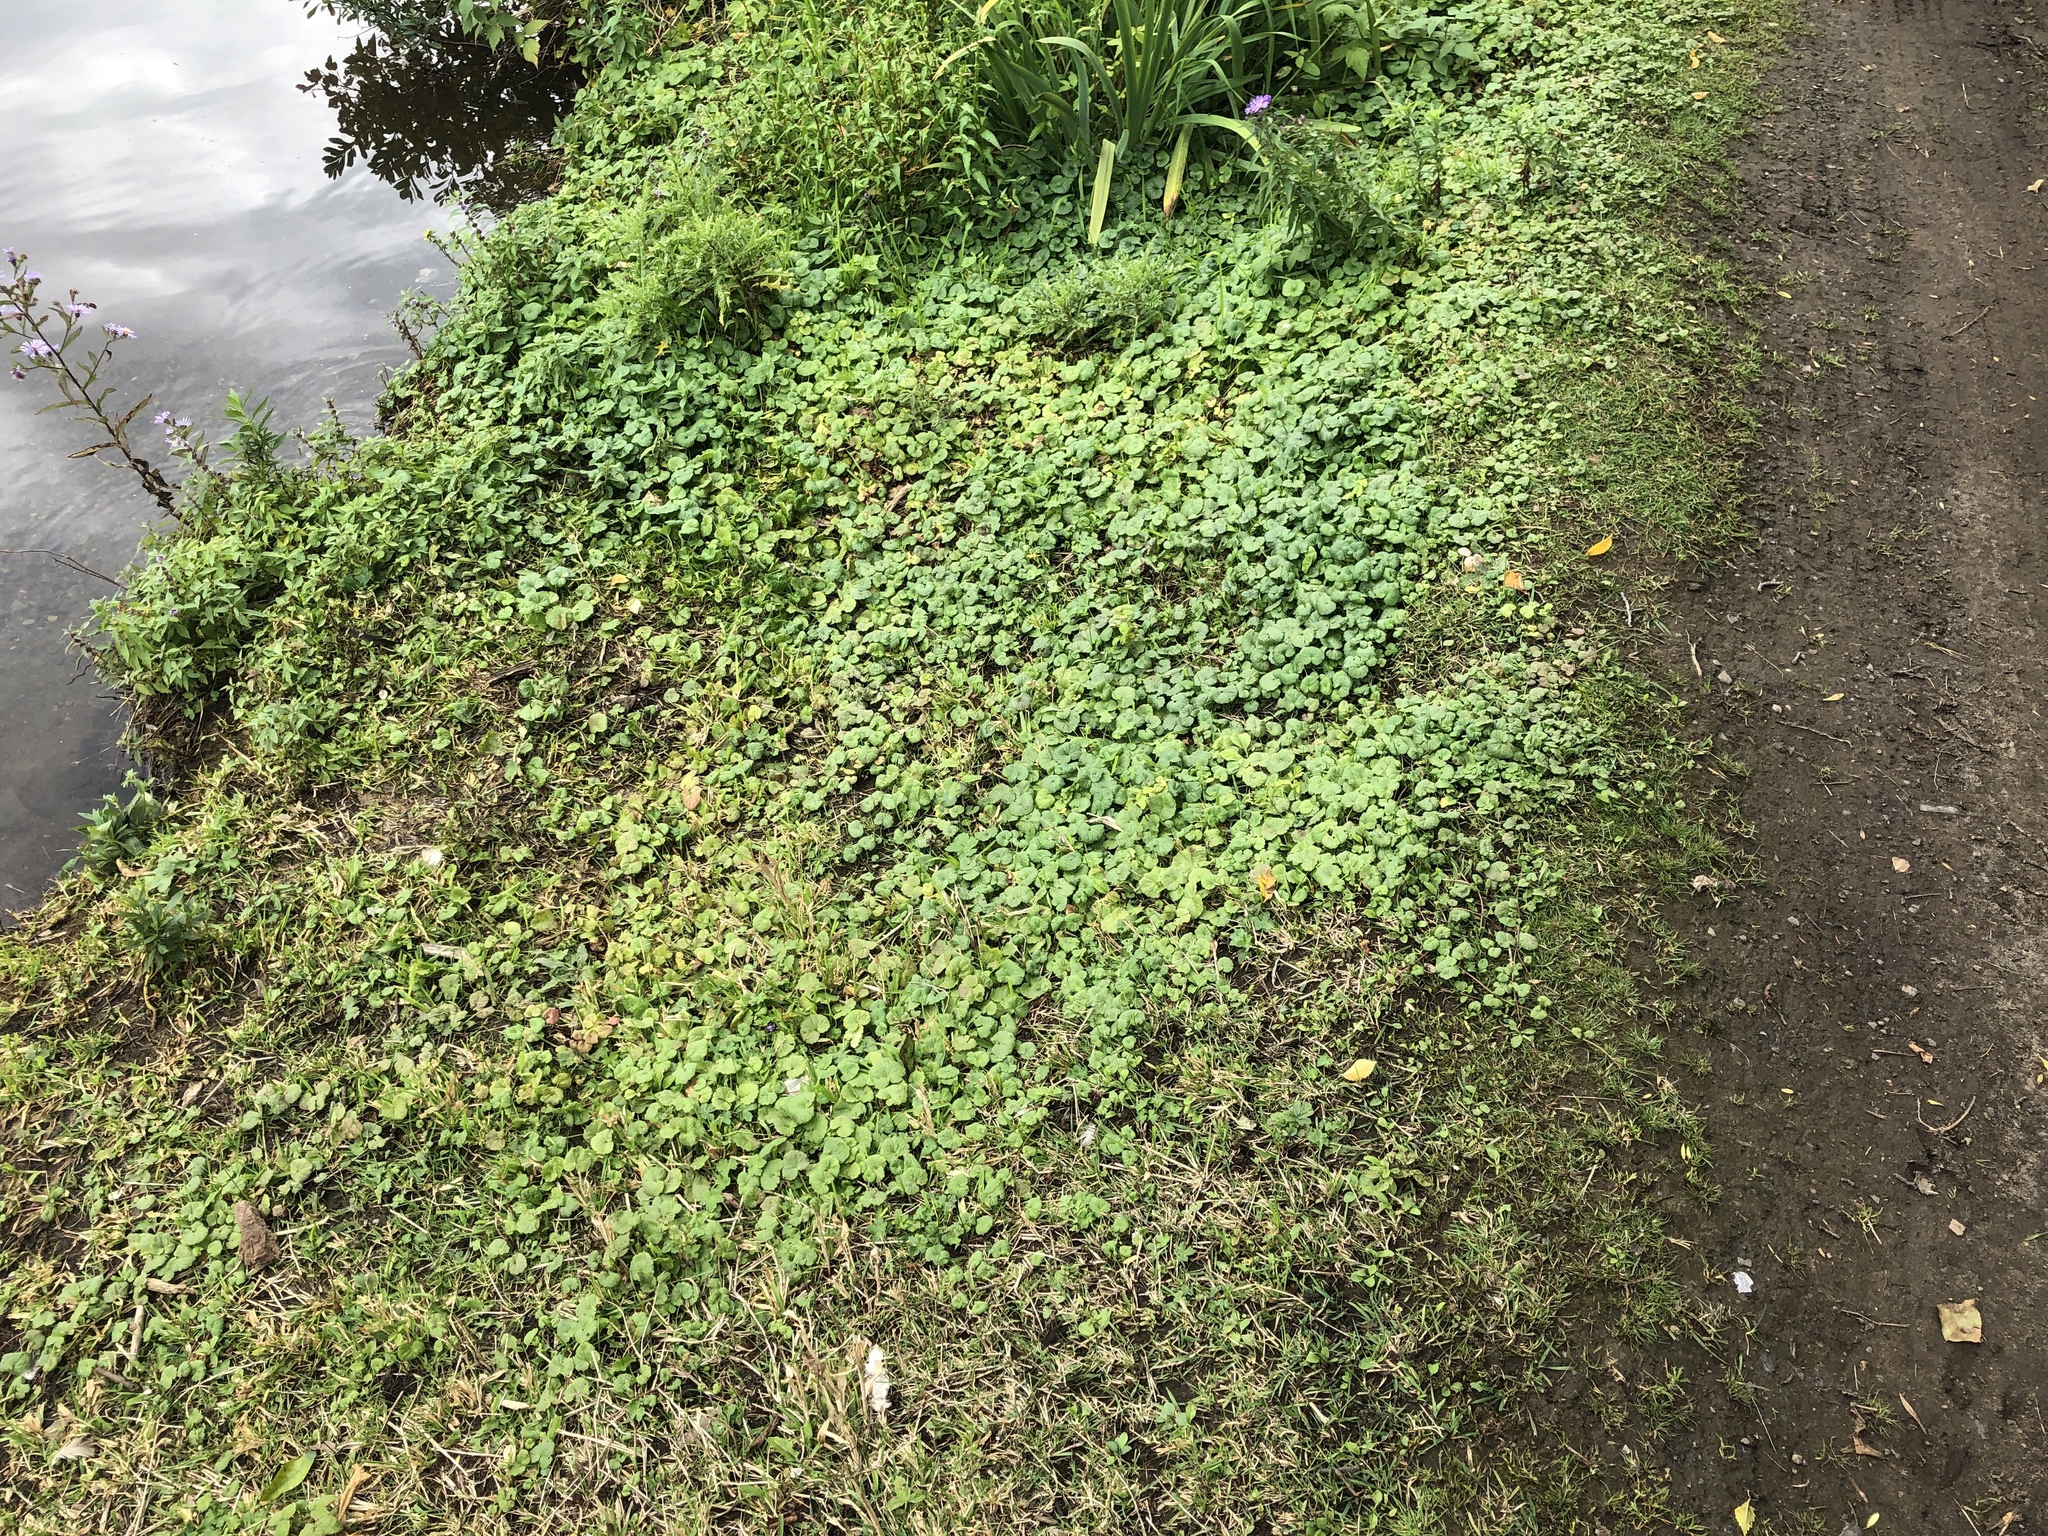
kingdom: Plantae
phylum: Tracheophyta
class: Magnoliopsida
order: Lamiales
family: Lamiaceae
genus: Glechoma
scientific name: Glechoma hederacea
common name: Ground ivy
